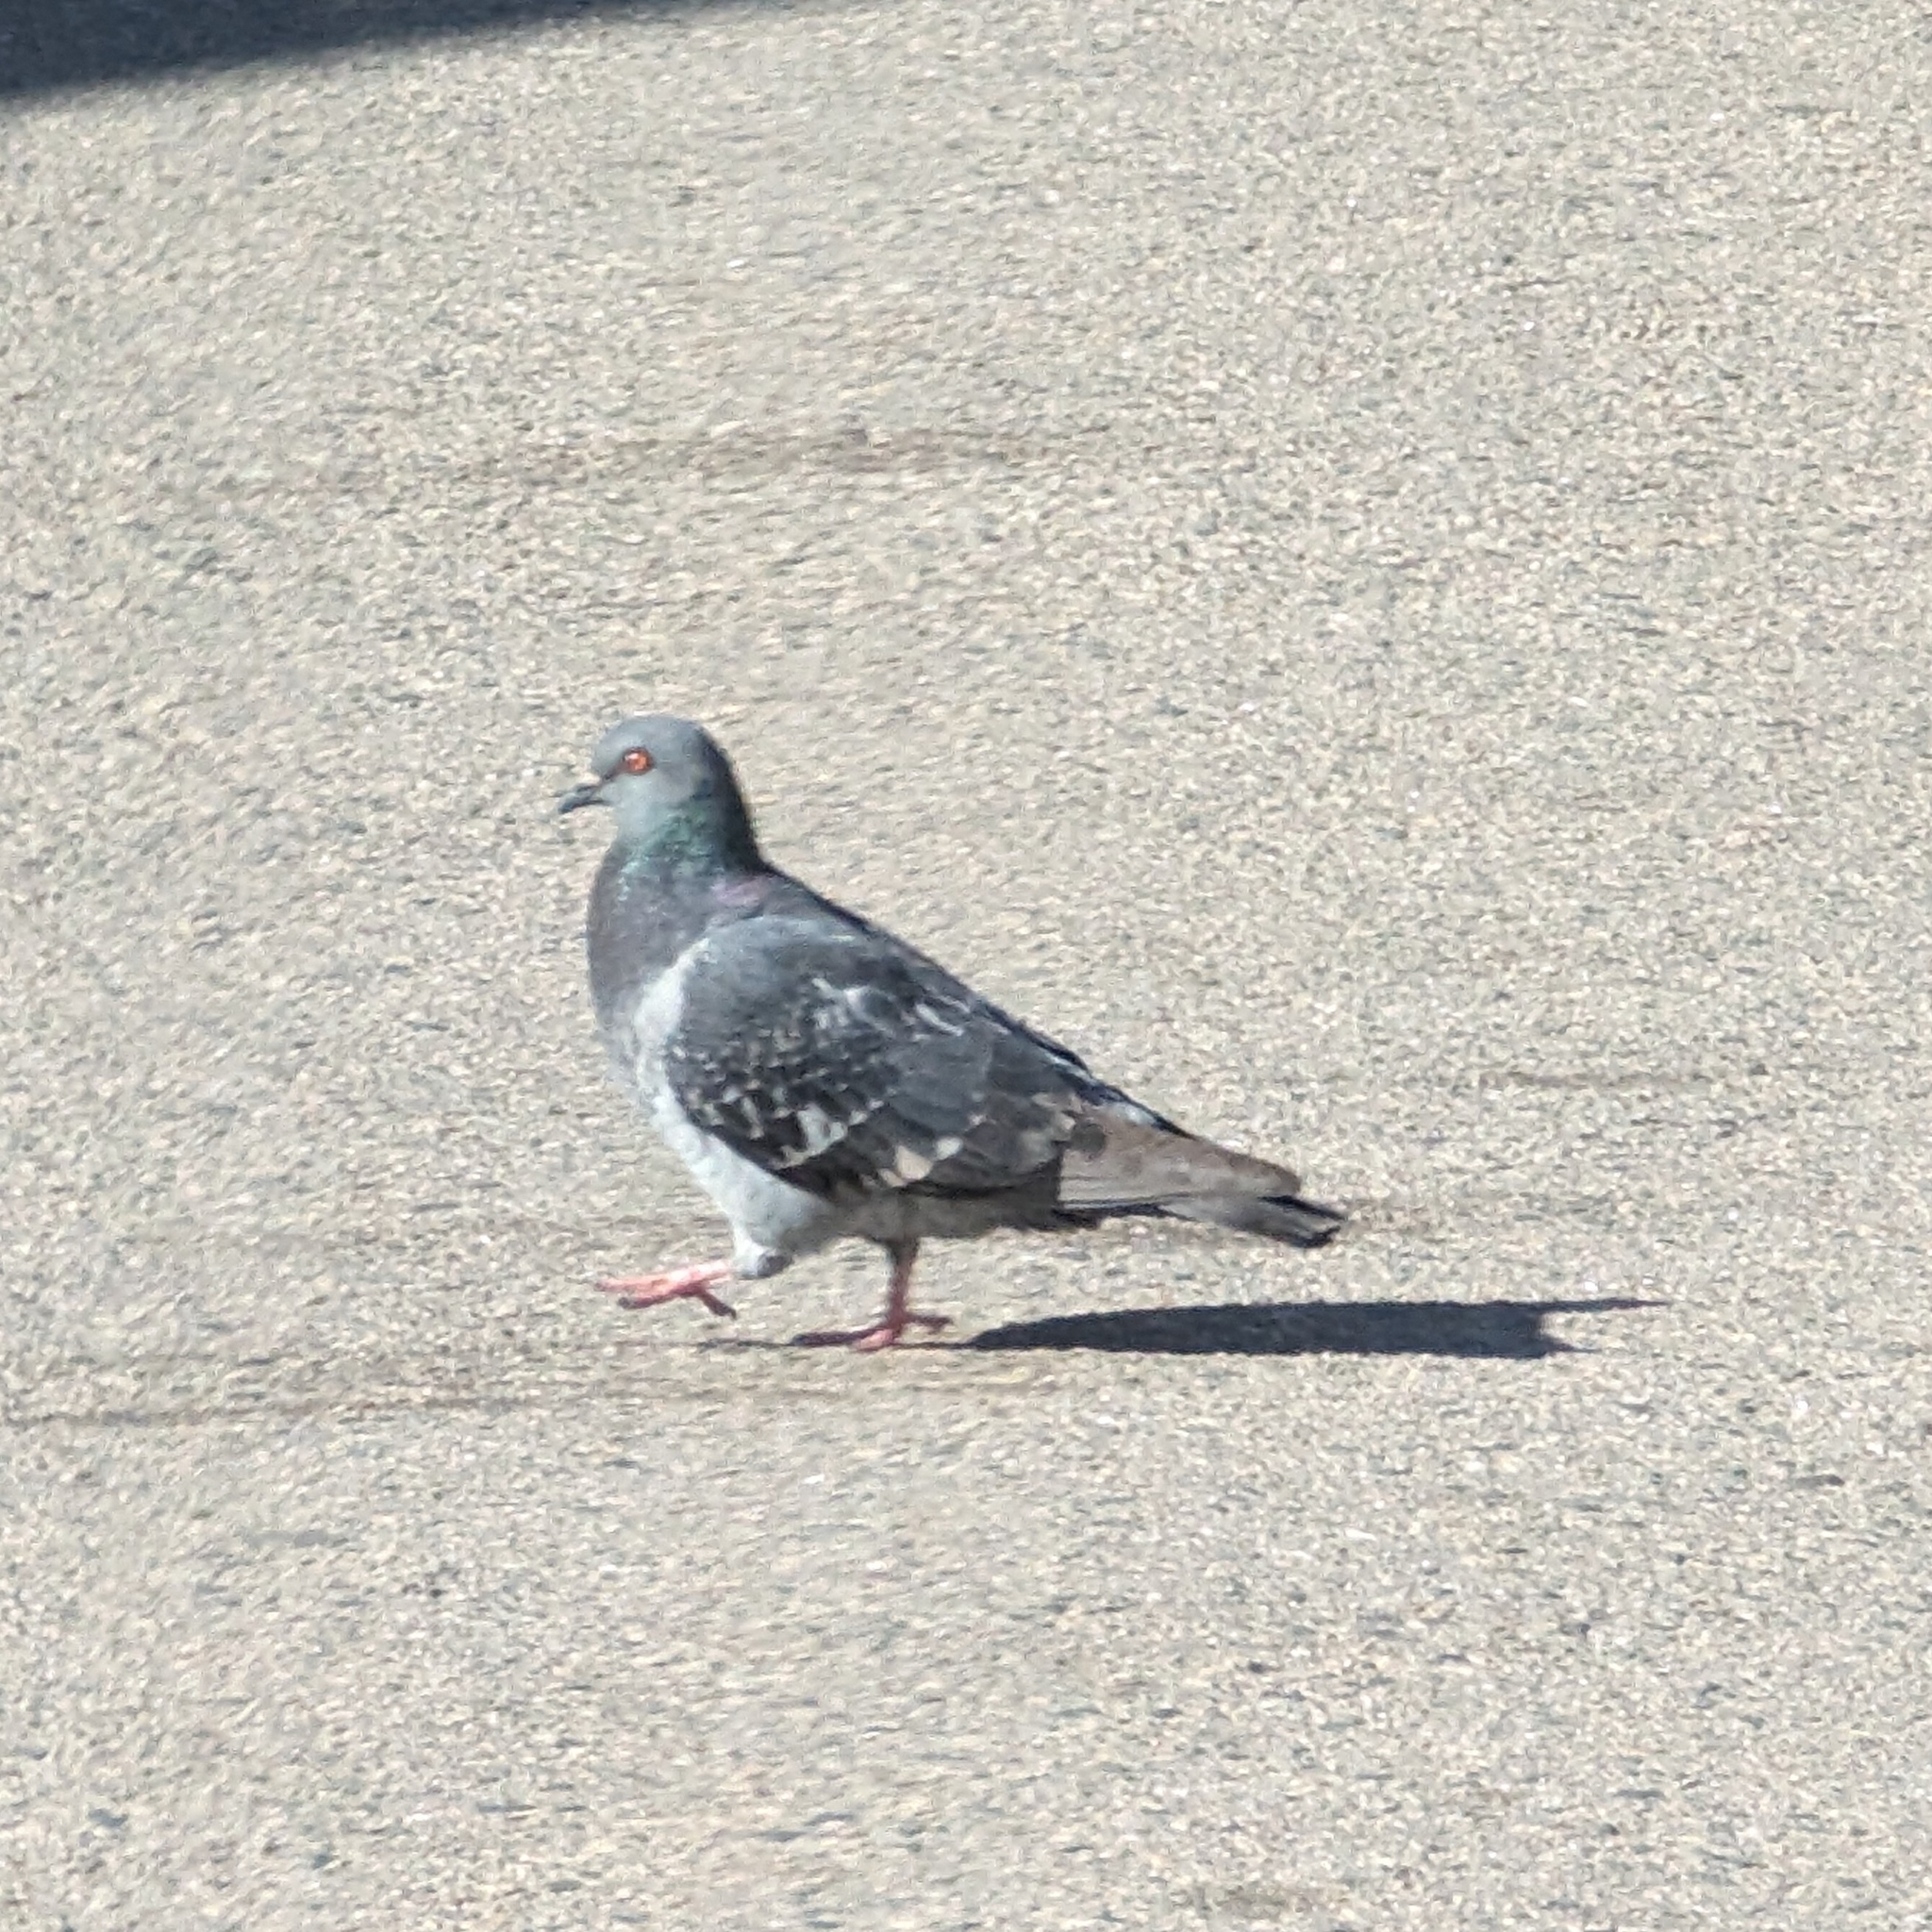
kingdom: Animalia
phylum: Chordata
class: Aves
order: Columbiformes
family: Columbidae
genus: Columba
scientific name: Columba livia
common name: Rock pigeon
